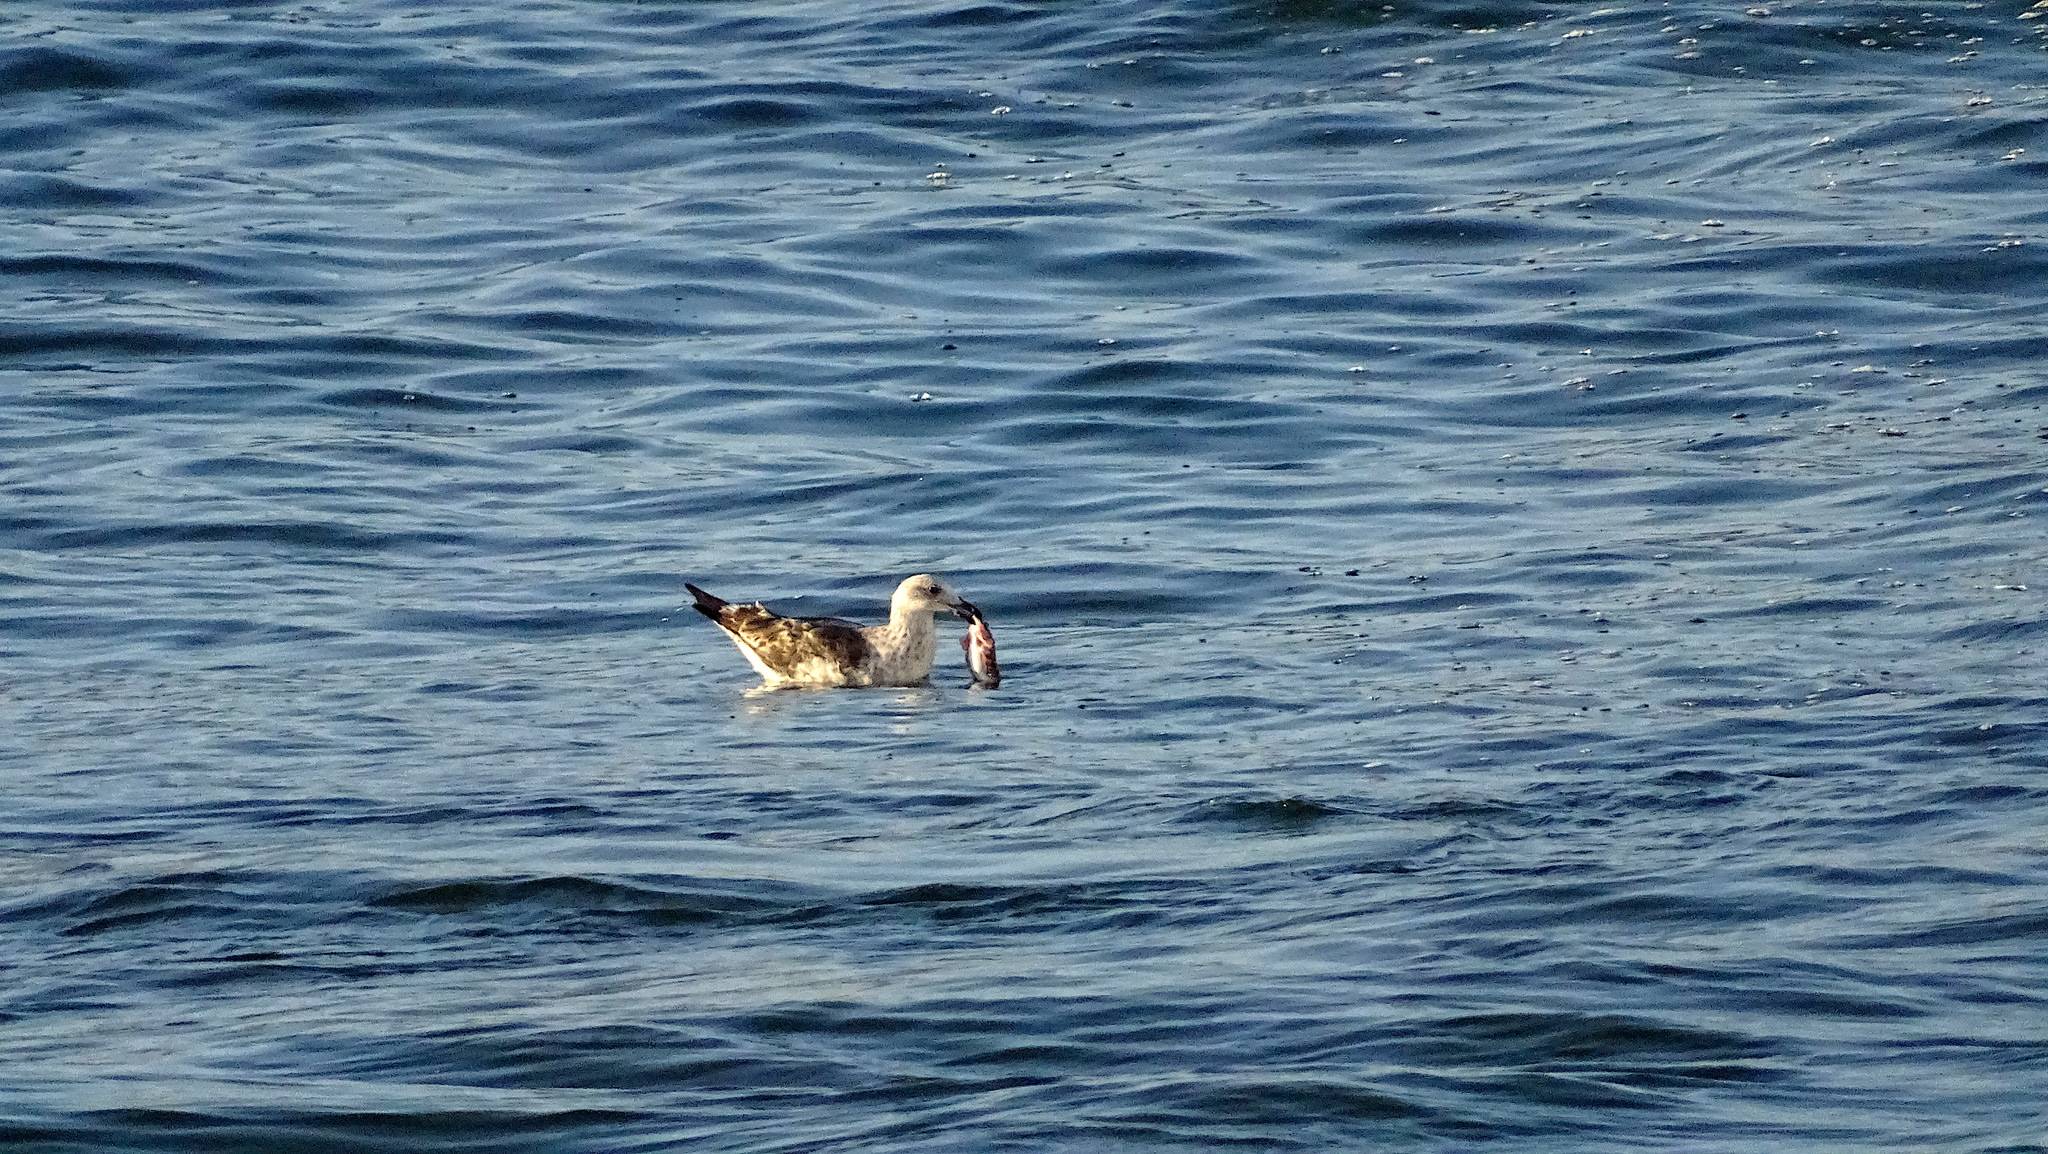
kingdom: Animalia
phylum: Chordata
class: Aves
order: Charadriiformes
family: Laridae
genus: Larus
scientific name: Larus dominicanus
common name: Kelp gull
